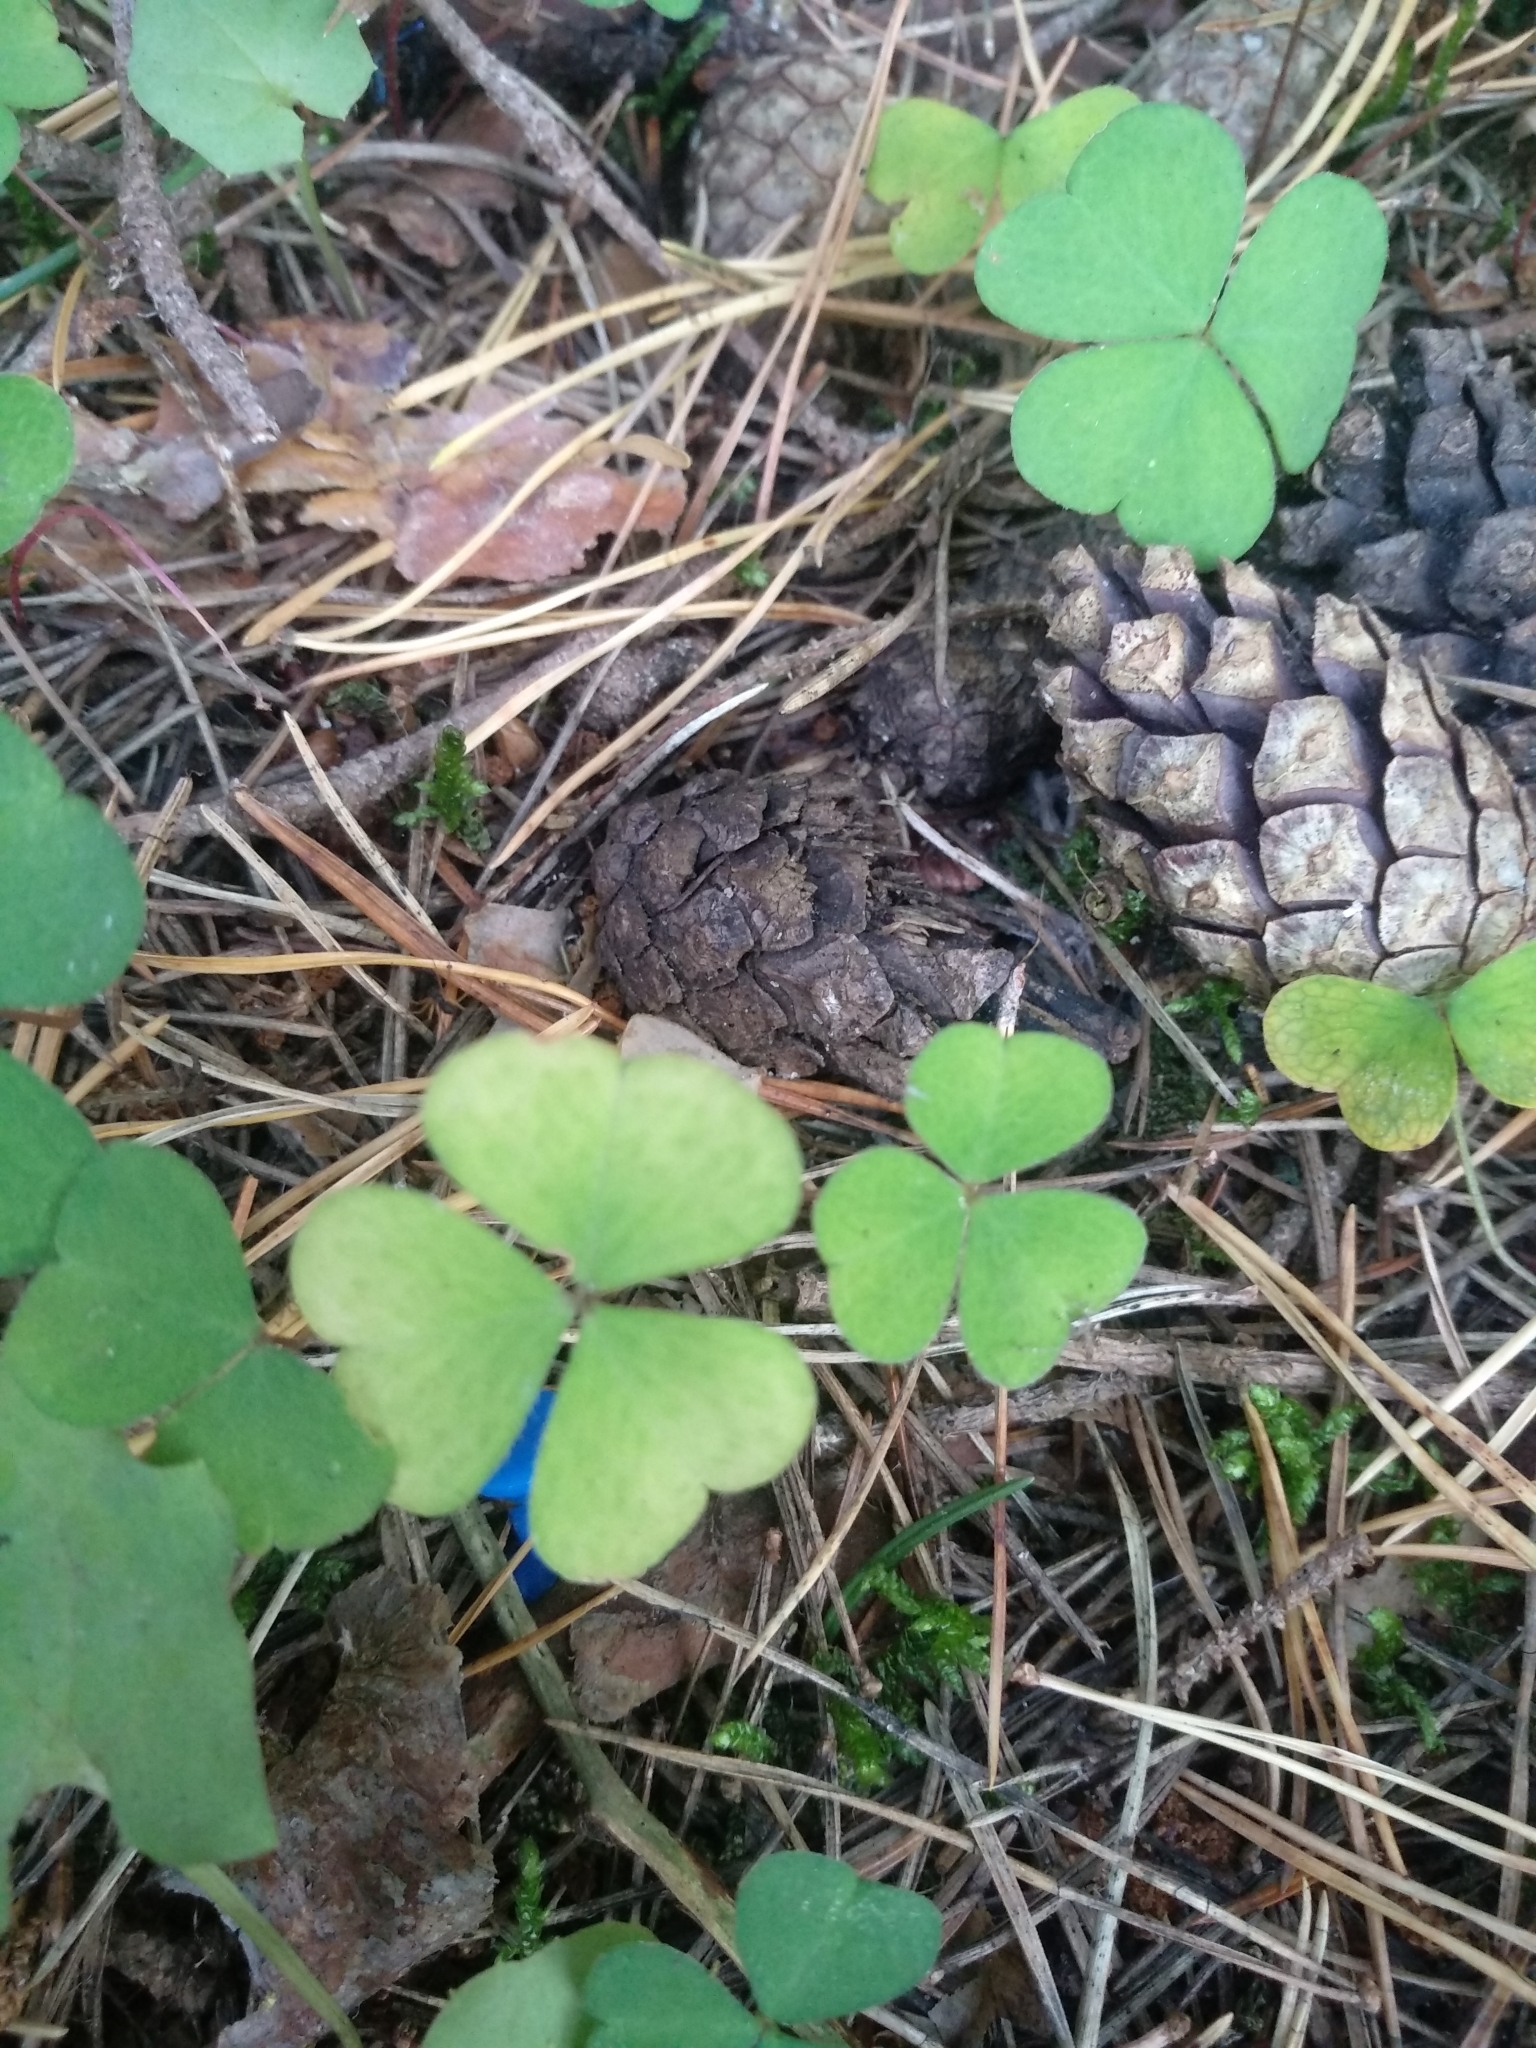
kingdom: Plantae
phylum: Tracheophyta
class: Magnoliopsida
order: Oxalidales
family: Oxalidaceae
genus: Oxalis
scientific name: Oxalis acetosella
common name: Wood-sorrel
